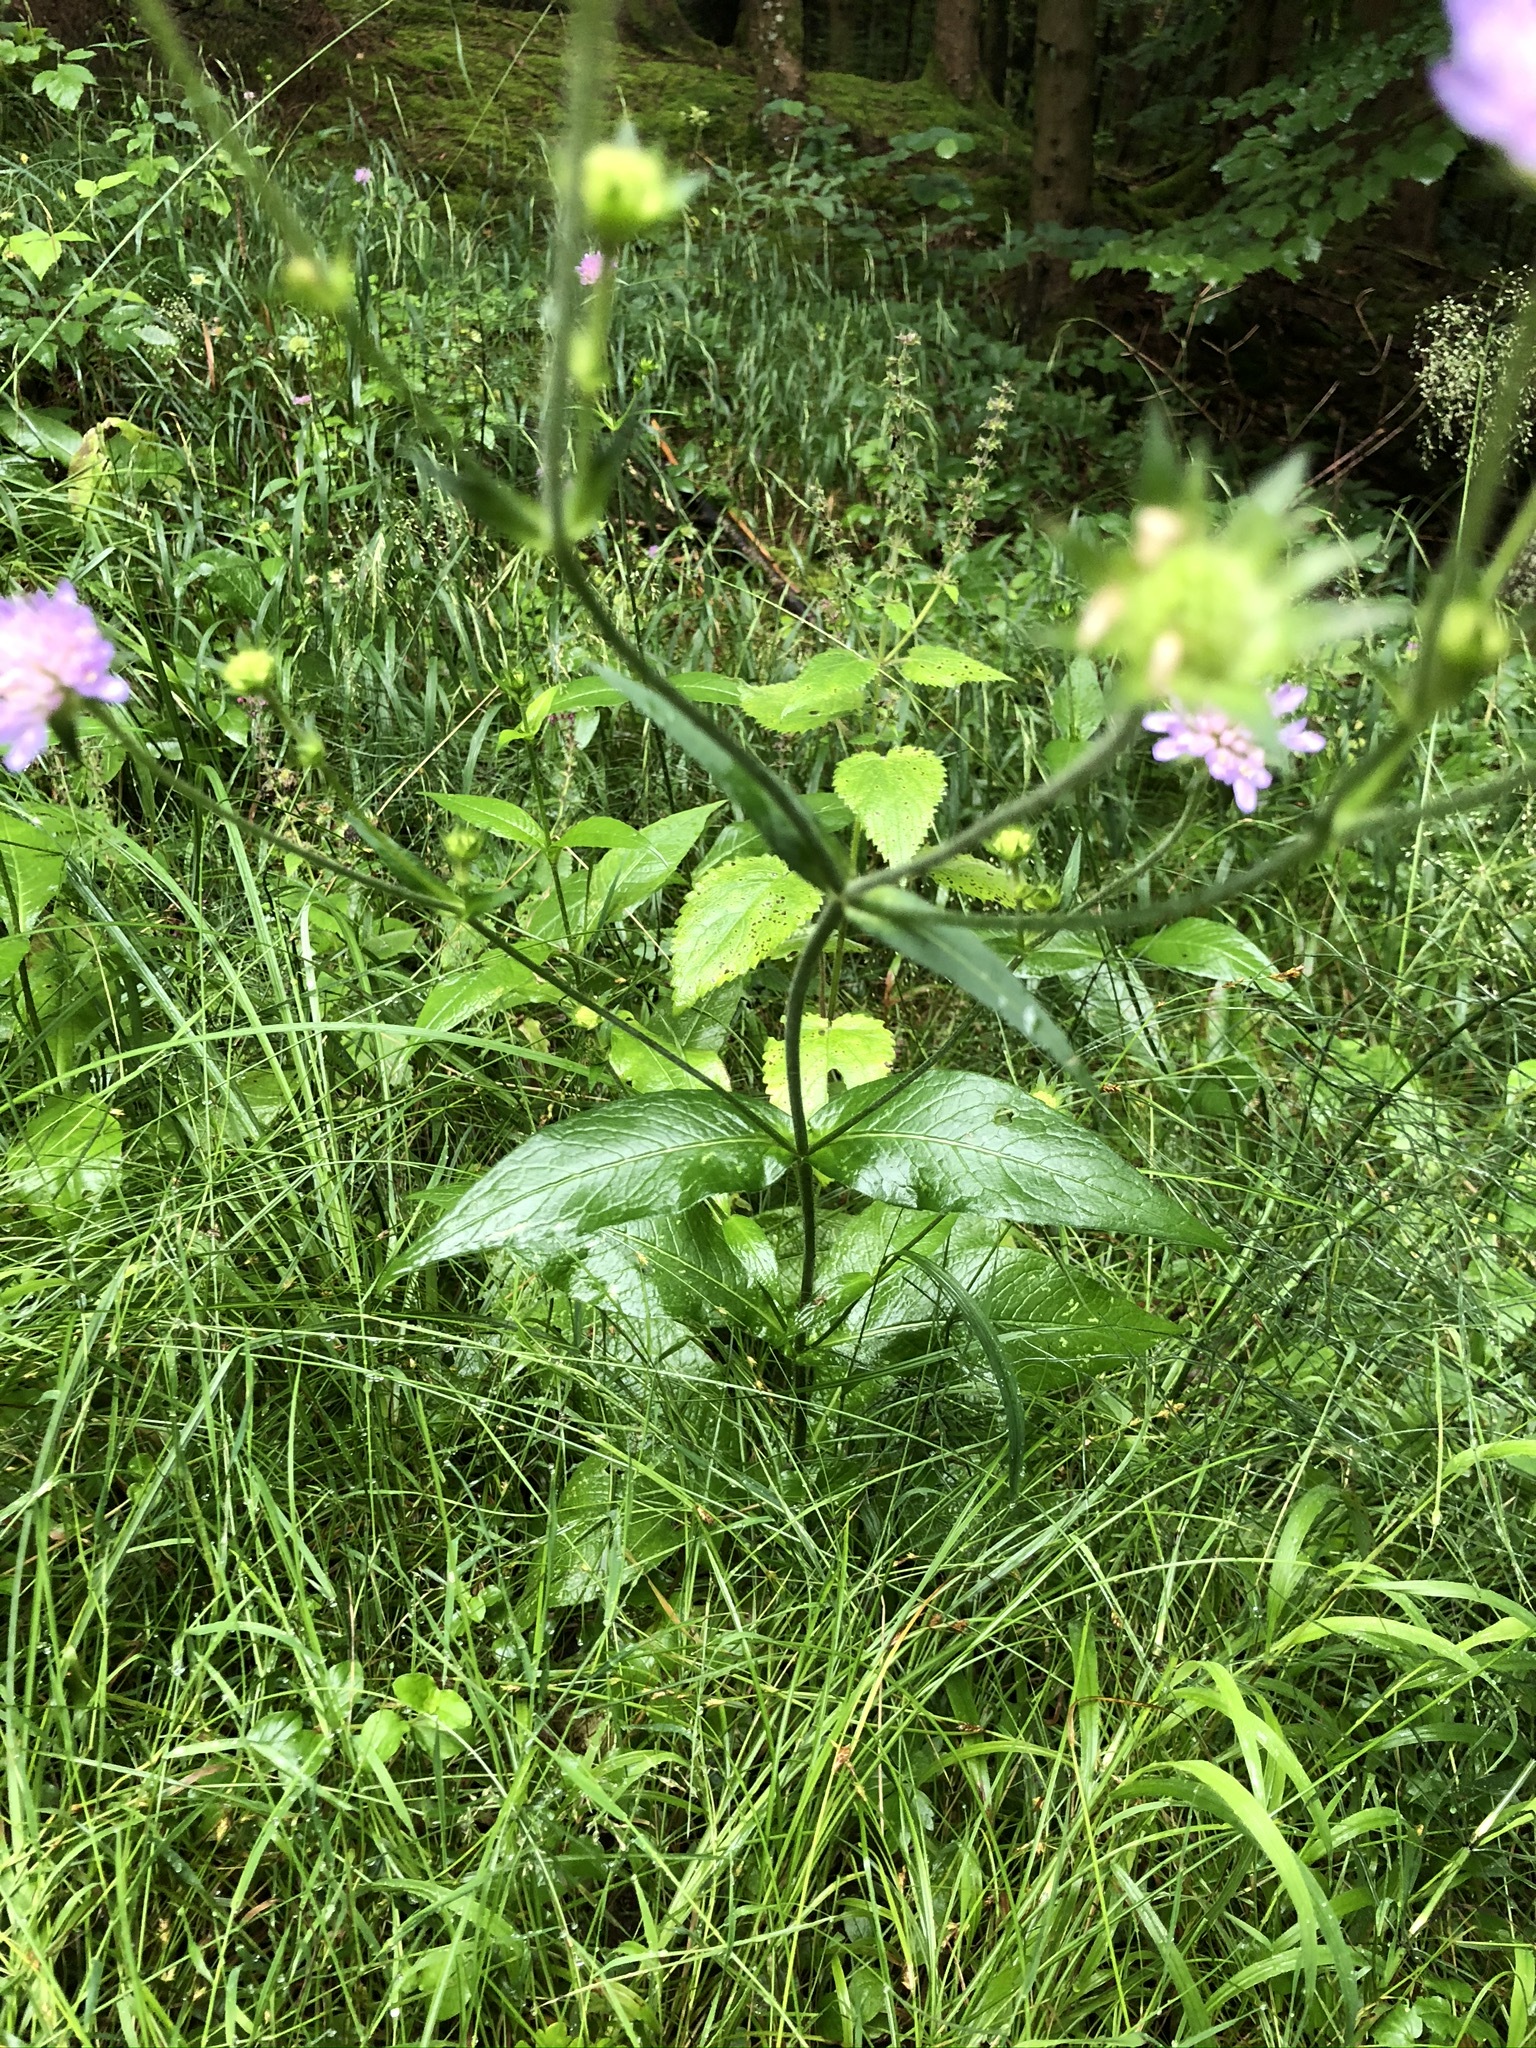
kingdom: Plantae
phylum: Tracheophyta
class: Magnoliopsida
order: Dipsacales
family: Caprifoliaceae
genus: Knautia
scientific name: Knautia dipsacifolia
